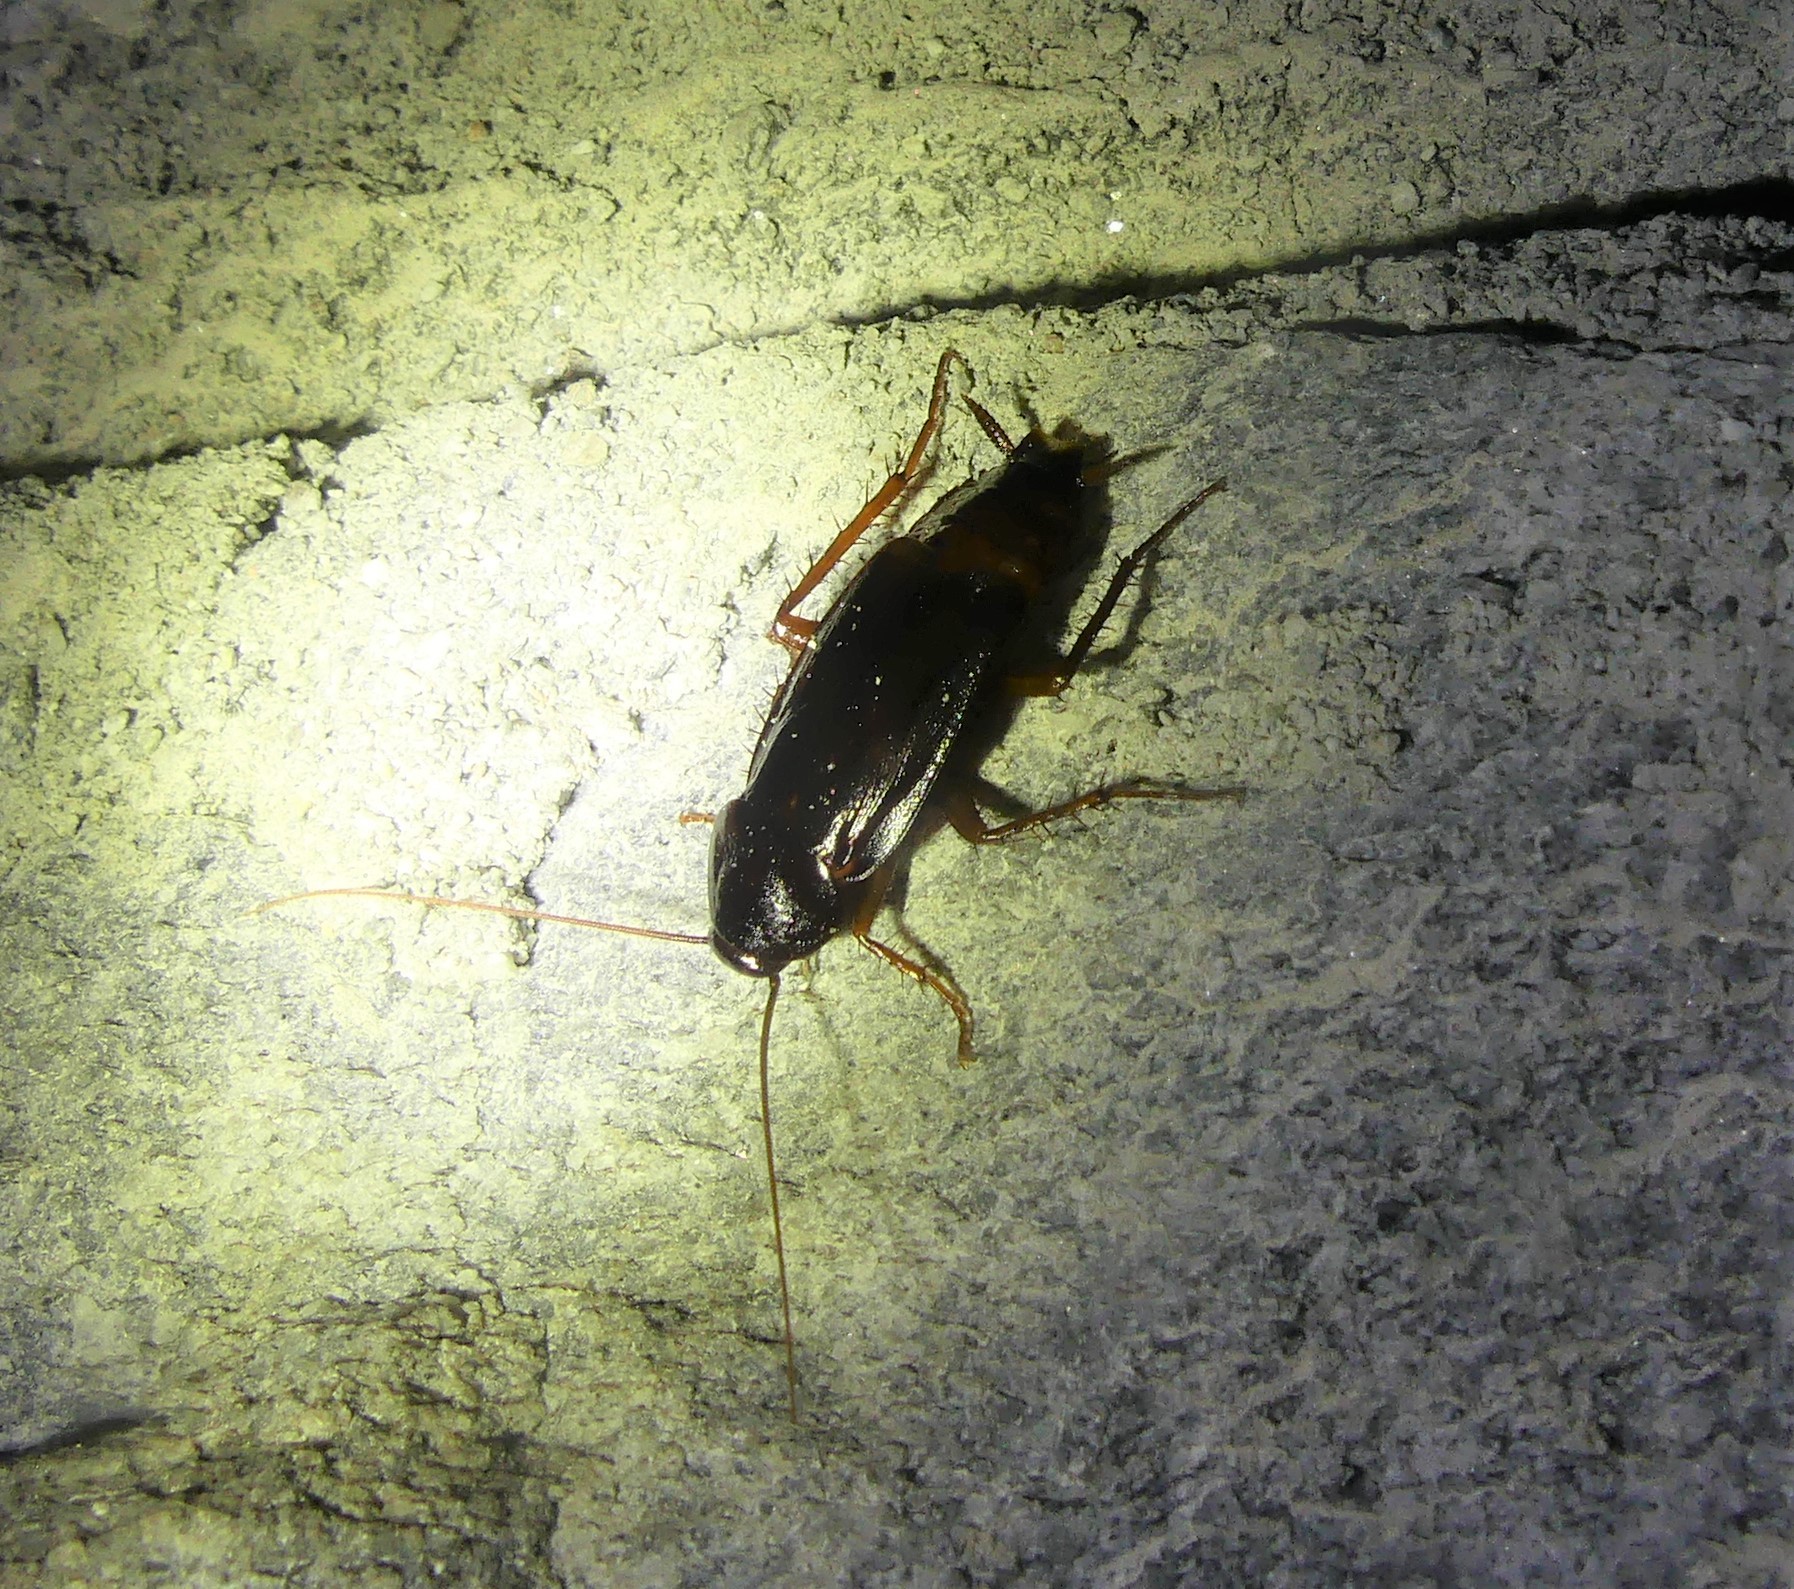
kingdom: Animalia
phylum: Arthropoda
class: Insecta
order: Blattodea
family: Blattidae
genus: Blatta
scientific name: Blatta orientalis
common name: Oriental cockroach
